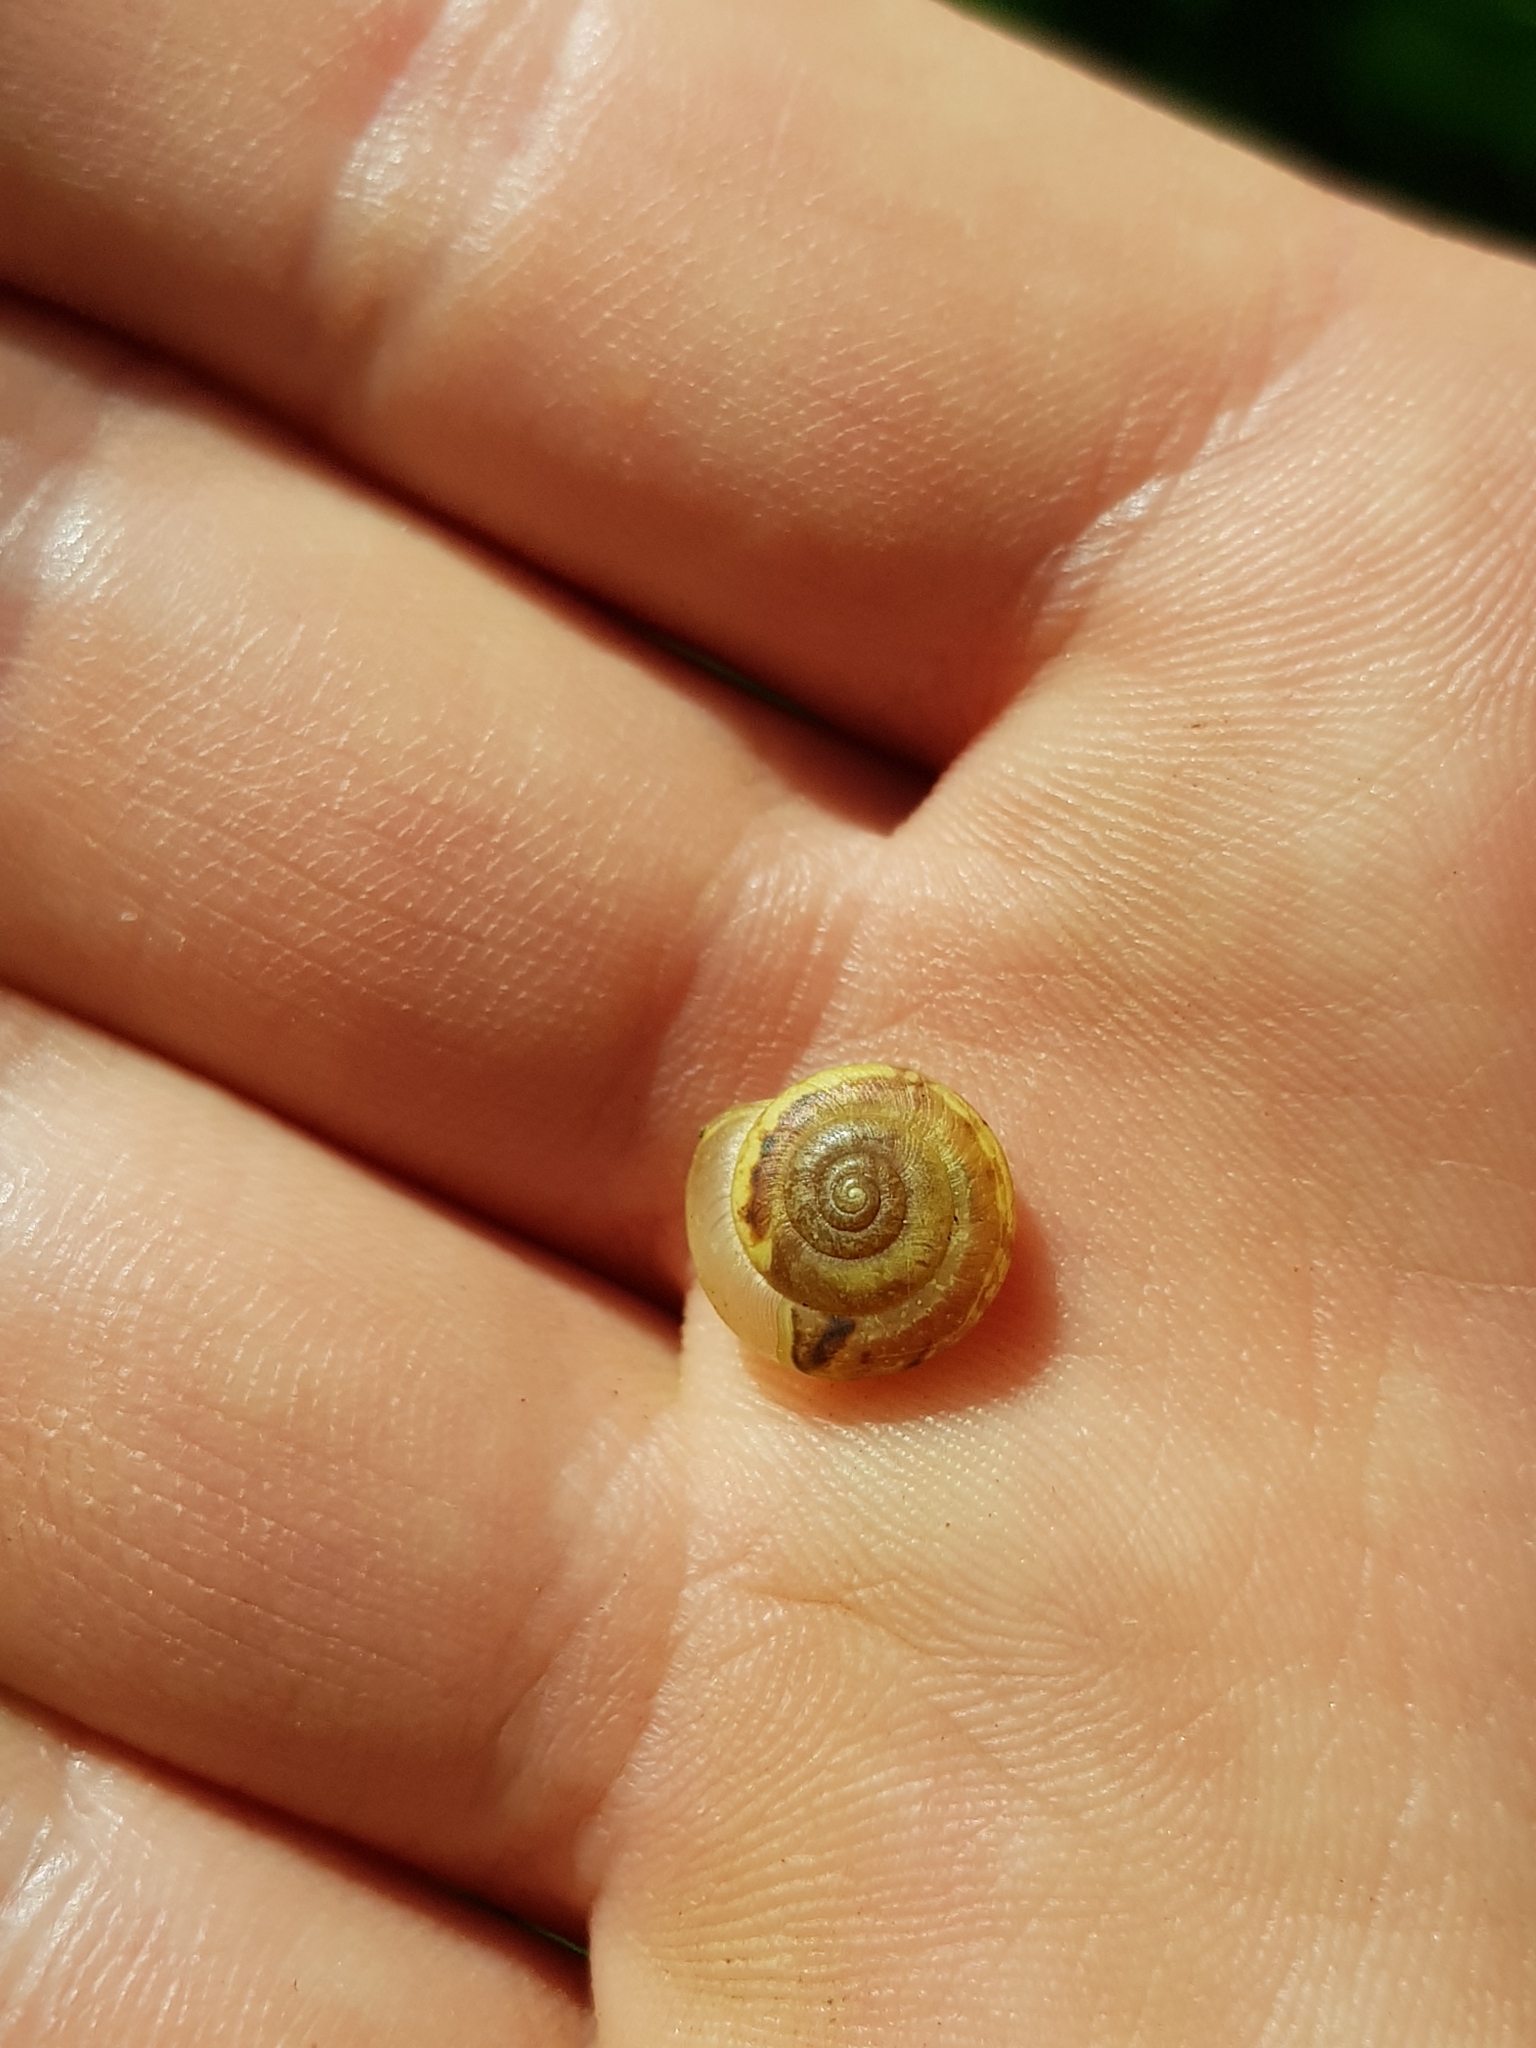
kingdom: Animalia
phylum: Mollusca
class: Gastropoda
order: Stylommatophora
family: Hygromiidae
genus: Urticicola
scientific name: Urticicola umbrosus
